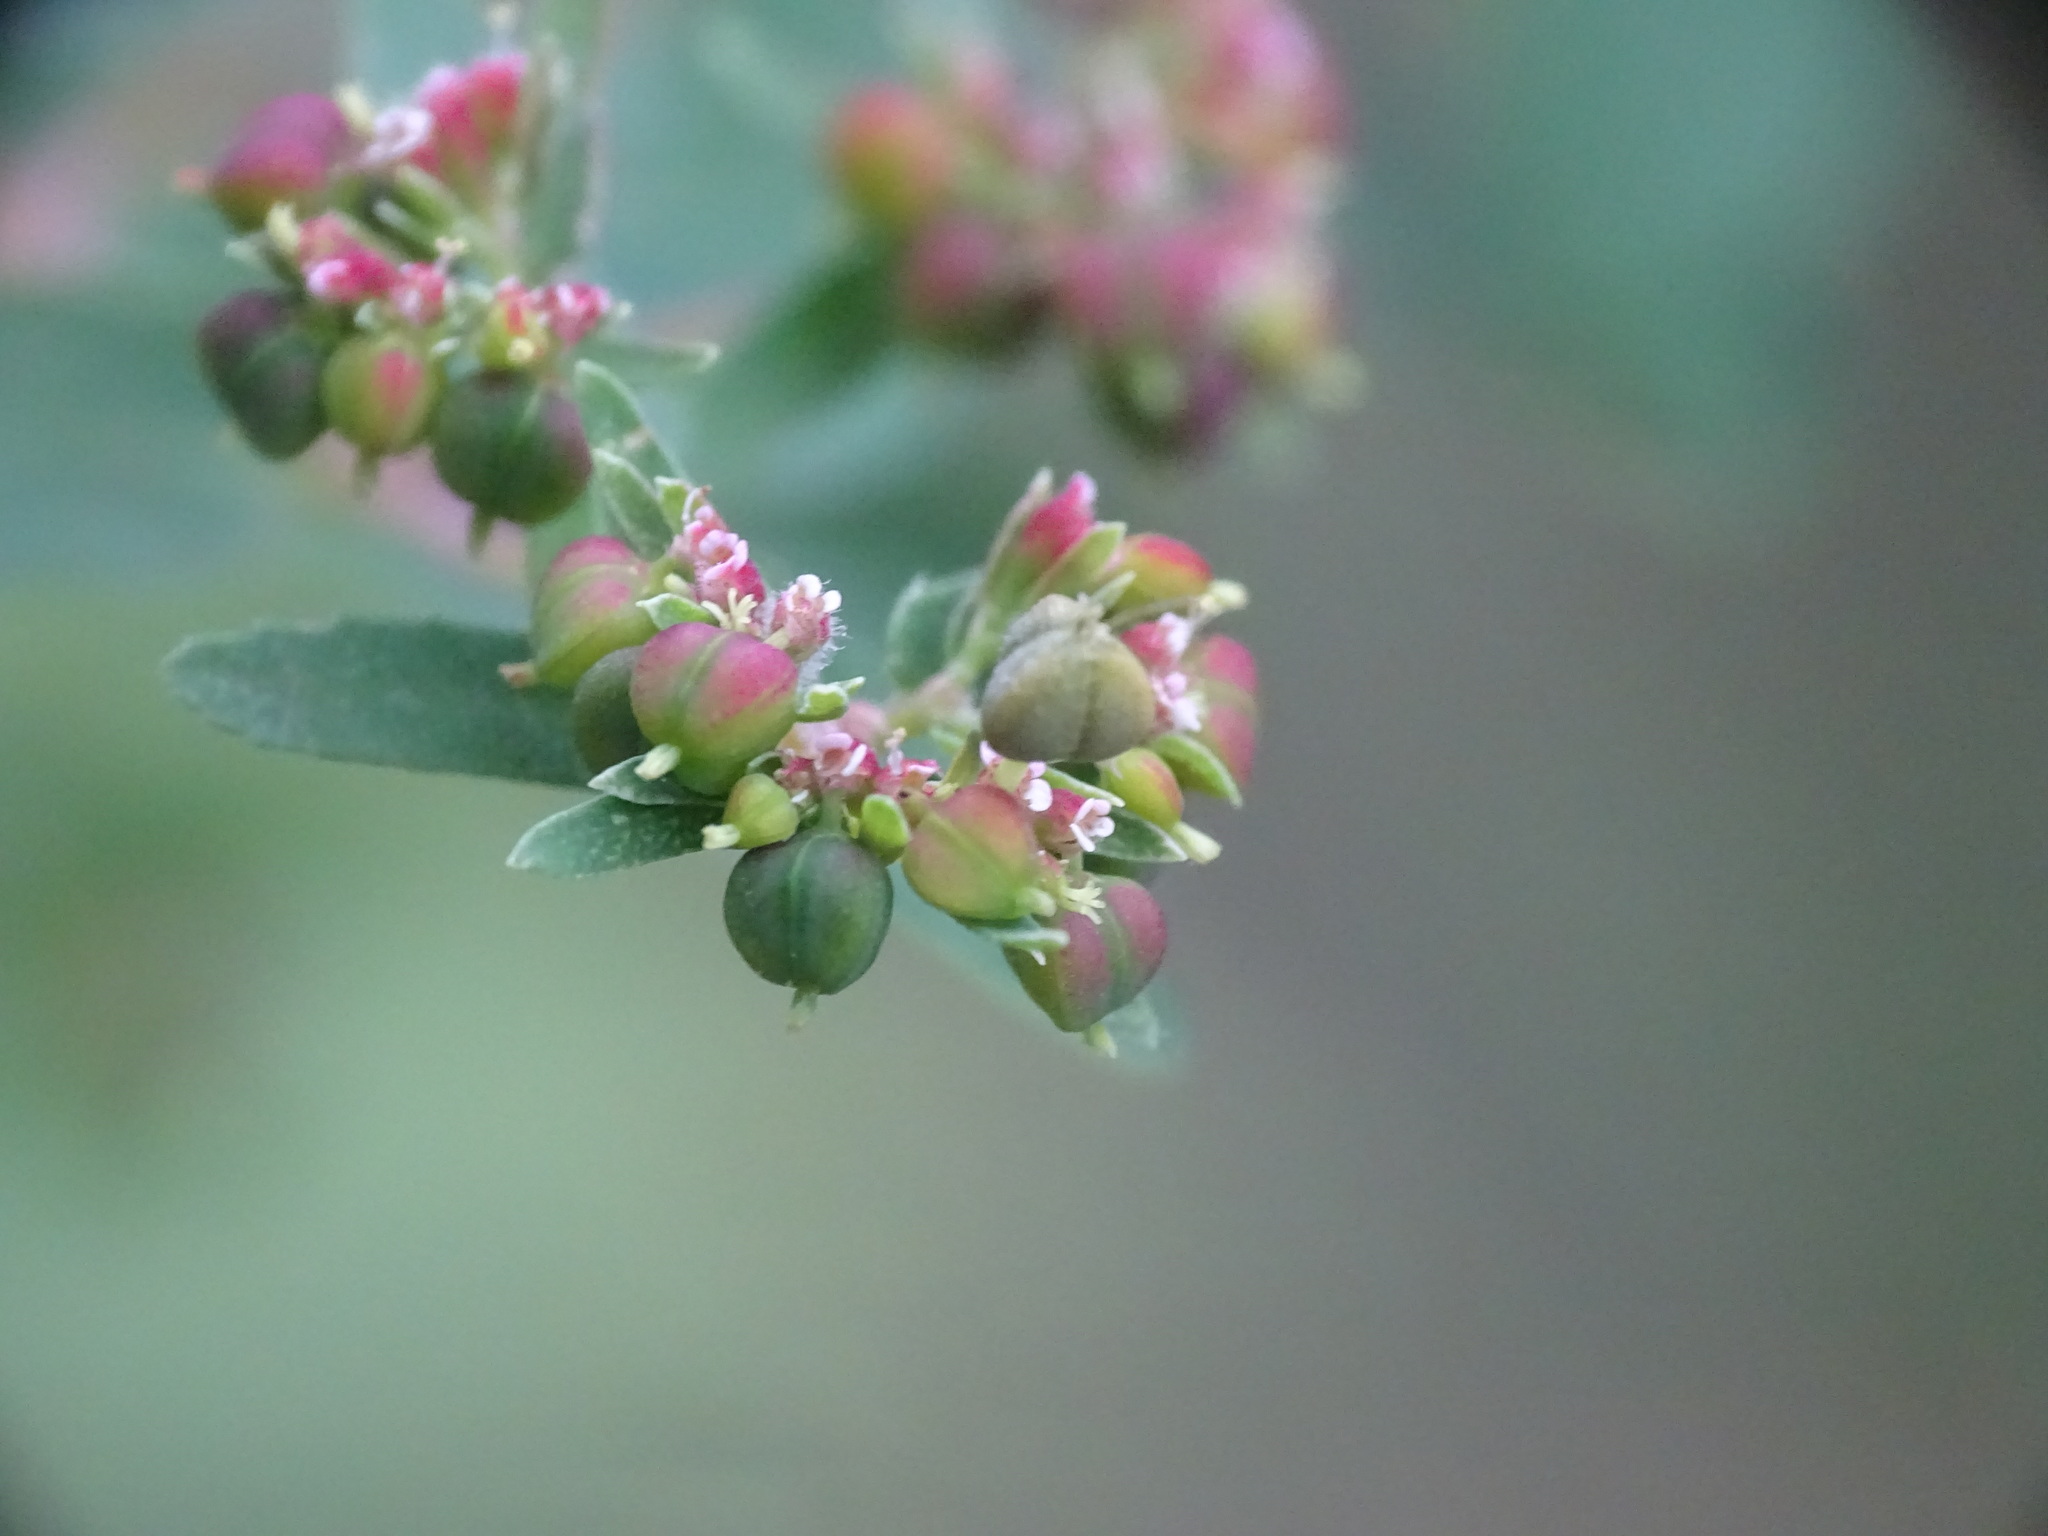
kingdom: Plantae
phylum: Tracheophyta
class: Magnoliopsida
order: Malpighiales
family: Euphorbiaceae
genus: Euphorbia
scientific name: Euphorbia nutans
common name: Eyebane
